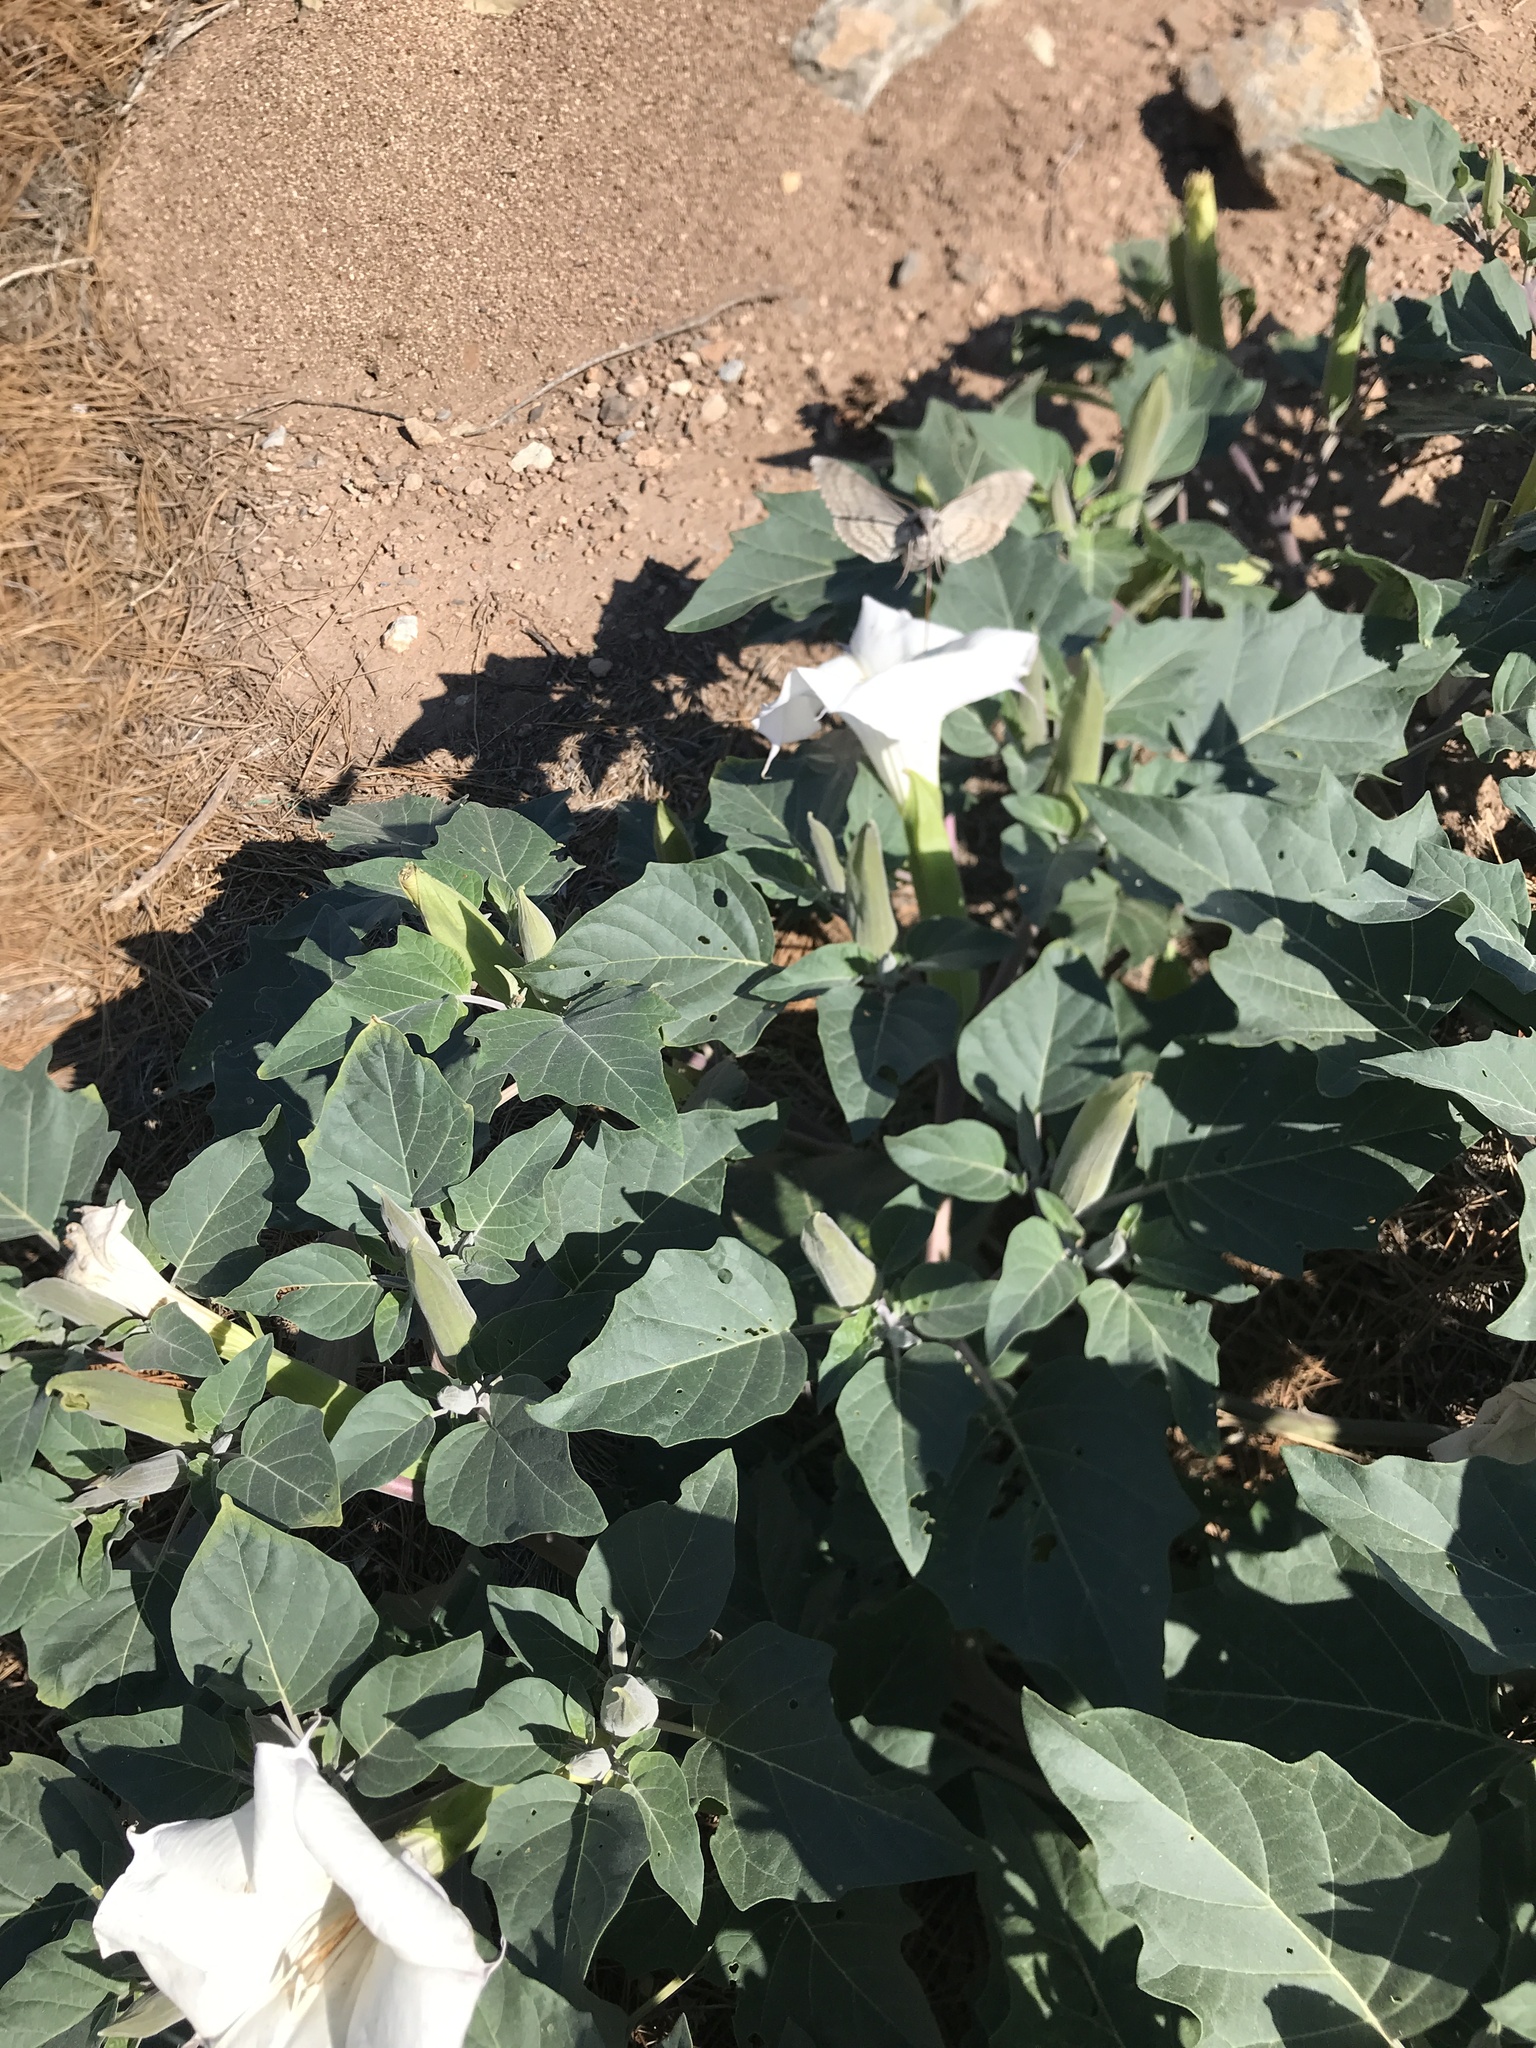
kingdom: Animalia
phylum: Arthropoda
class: Insecta
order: Lepidoptera
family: Sphingidae
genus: Manduca
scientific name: Manduca quinquemaculatus
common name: Five-spotted hawk-moth
